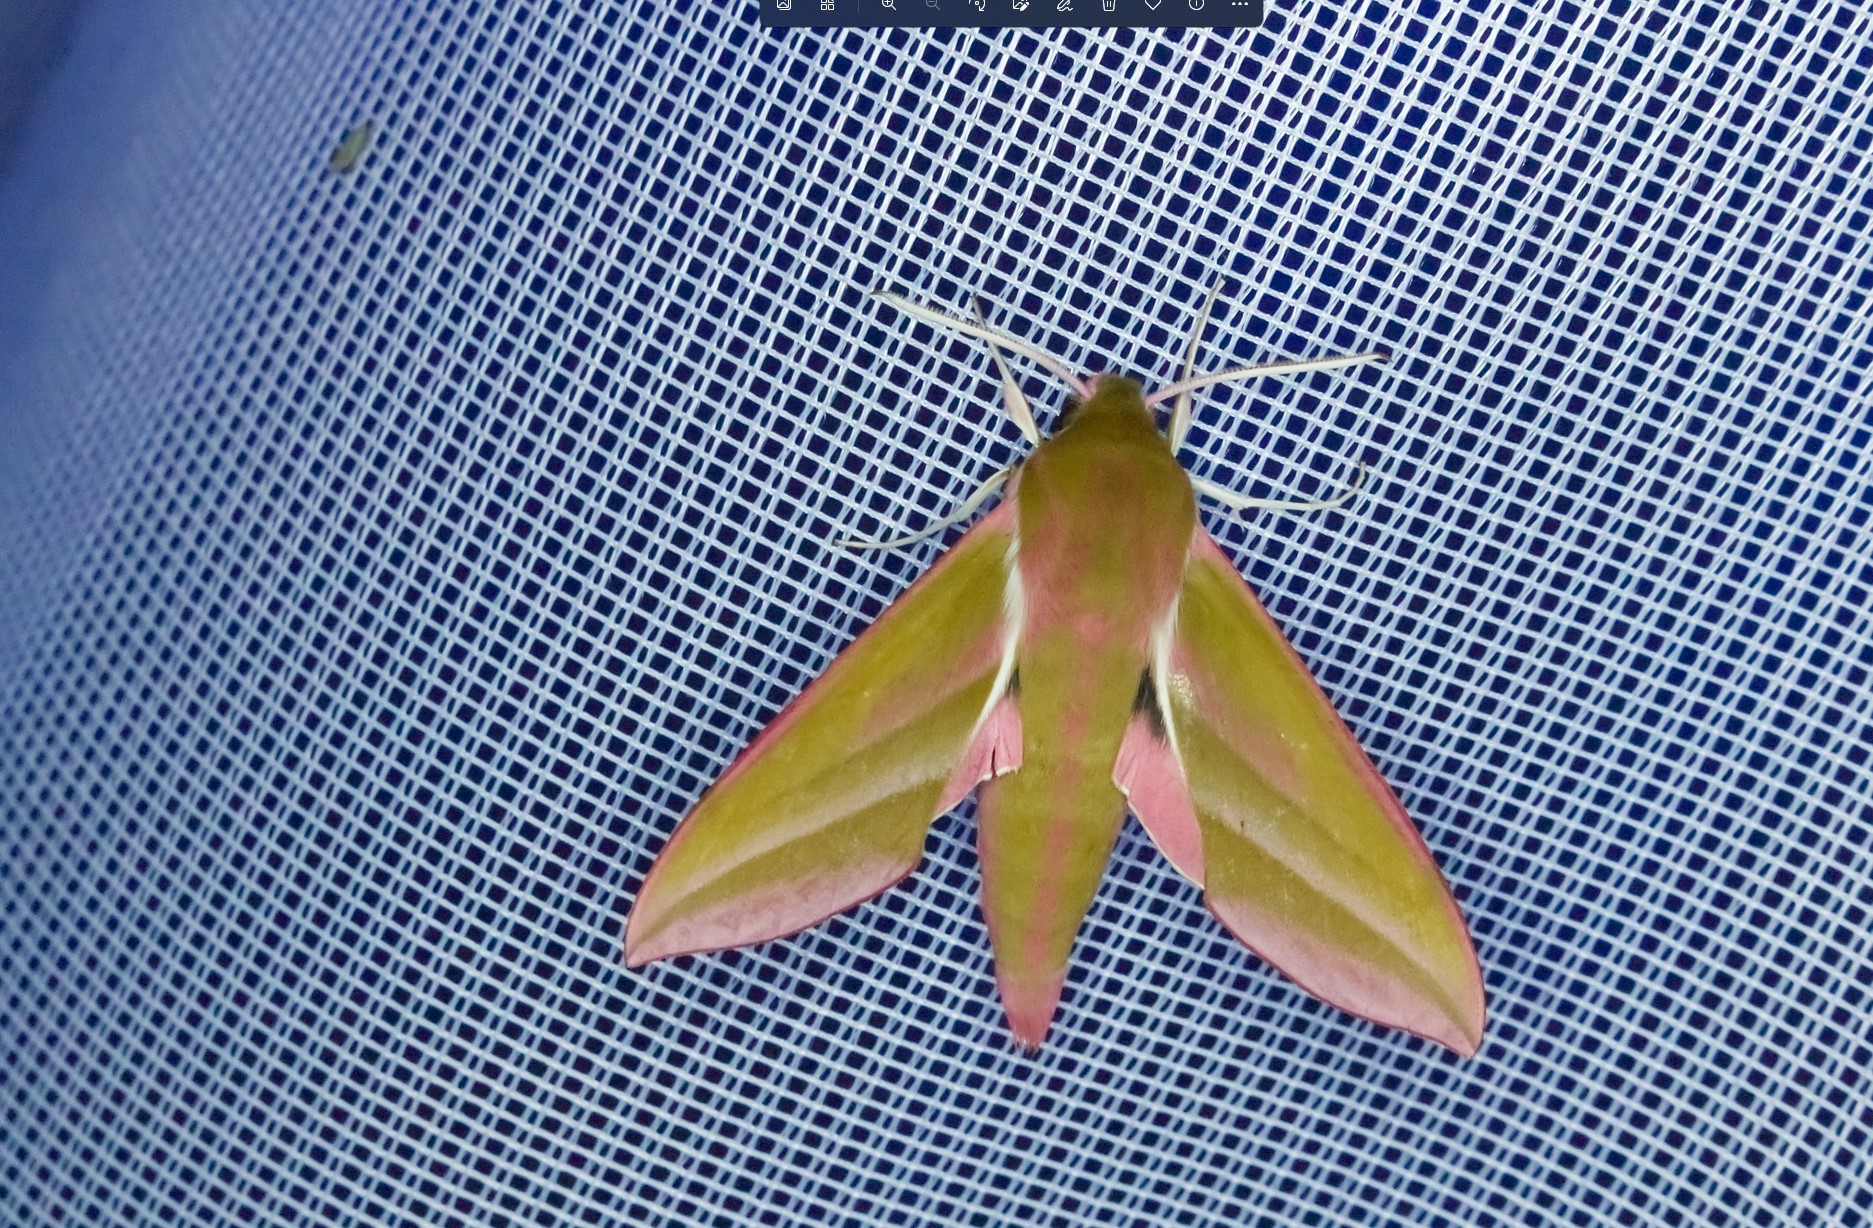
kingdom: Animalia
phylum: Arthropoda
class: Insecta
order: Lepidoptera
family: Sphingidae
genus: Deilephila
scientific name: Deilephila elpenor
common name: Elephant hawk-moth
